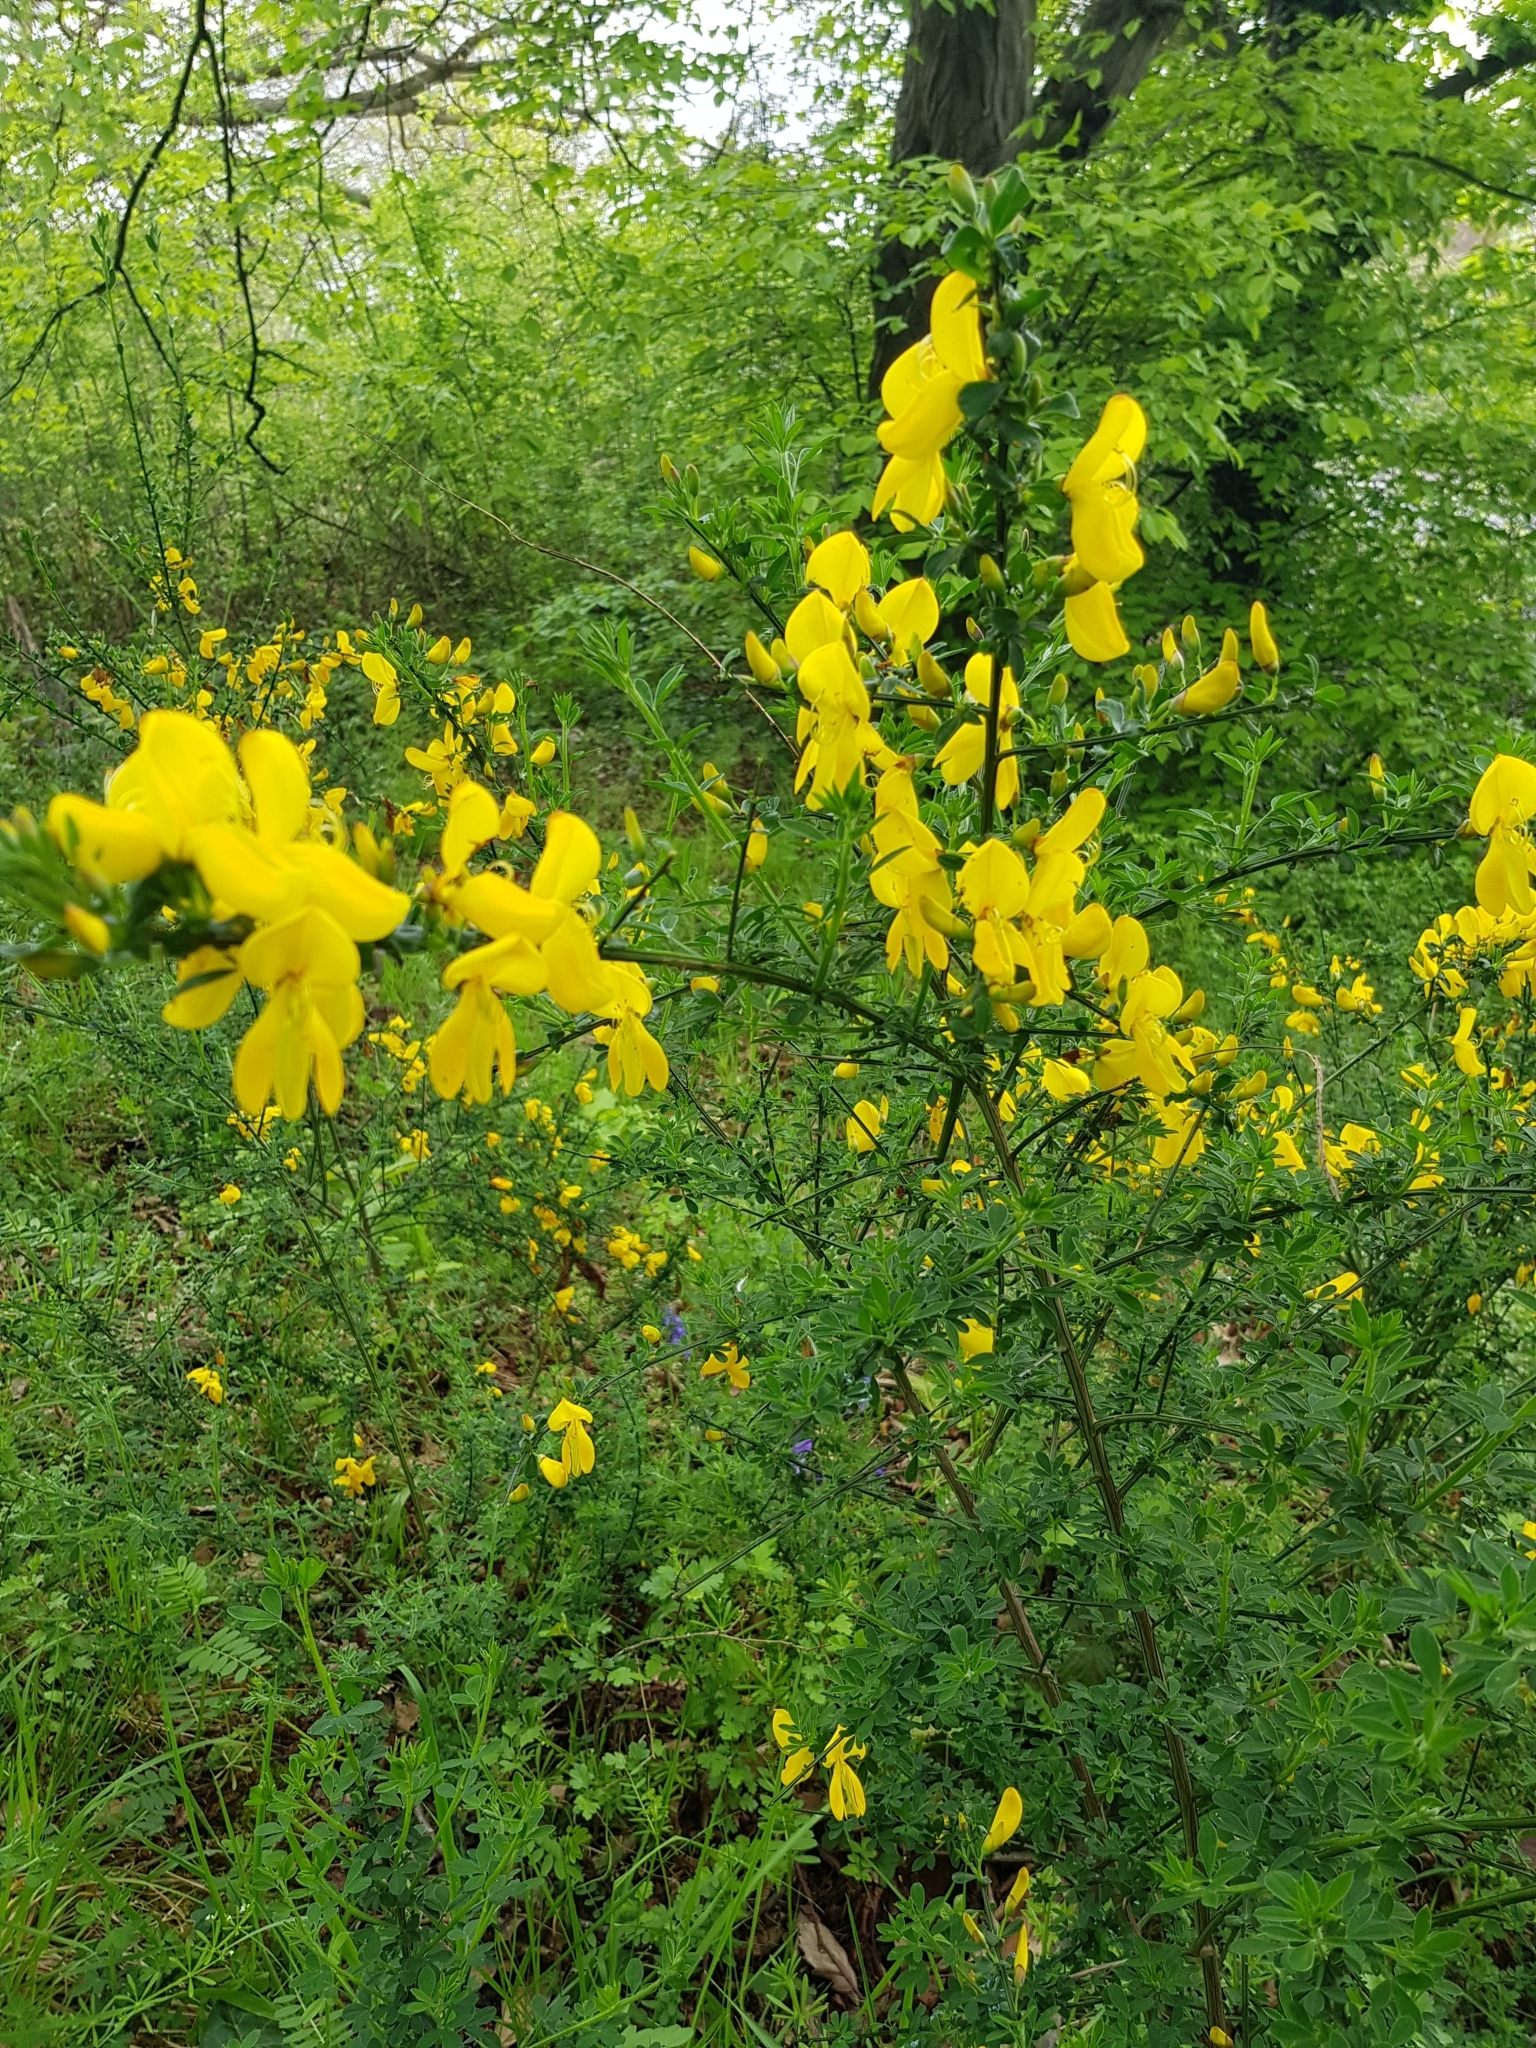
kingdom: Plantae
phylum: Tracheophyta
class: Magnoliopsida
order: Fabales
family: Fabaceae
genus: Cytisus
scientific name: Cytisus scoparius
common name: Scotch broom
